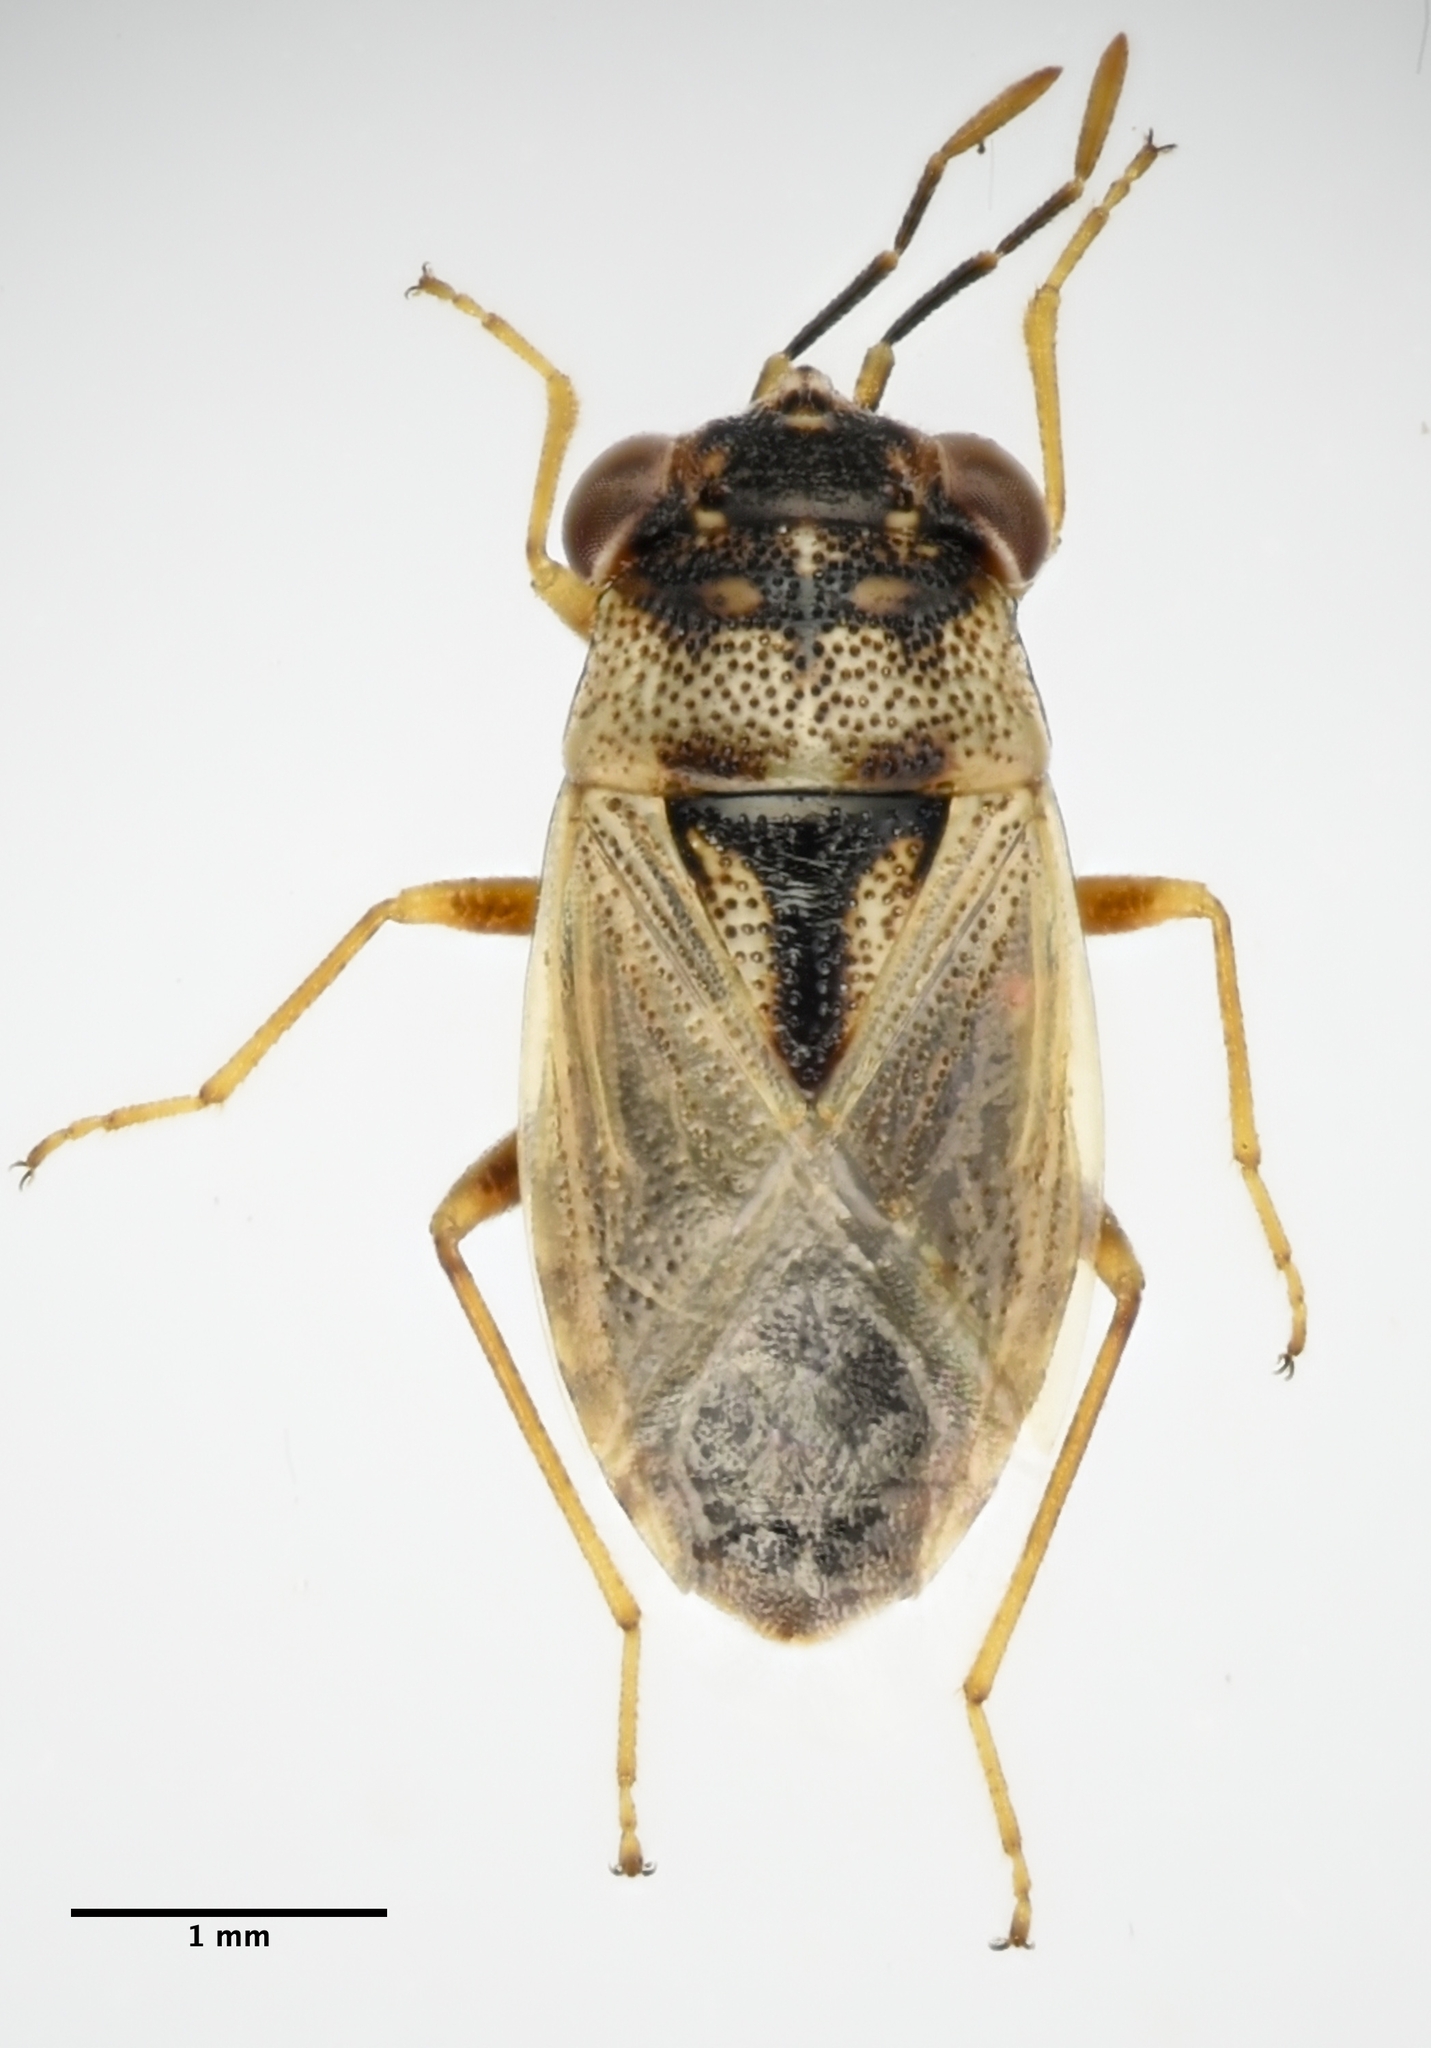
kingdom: Animalia
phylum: Arthropoda
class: Insecta
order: Hemiptera
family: Geocoridae
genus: Geocoris
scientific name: Geocoris pallens
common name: Big-eyed bug
